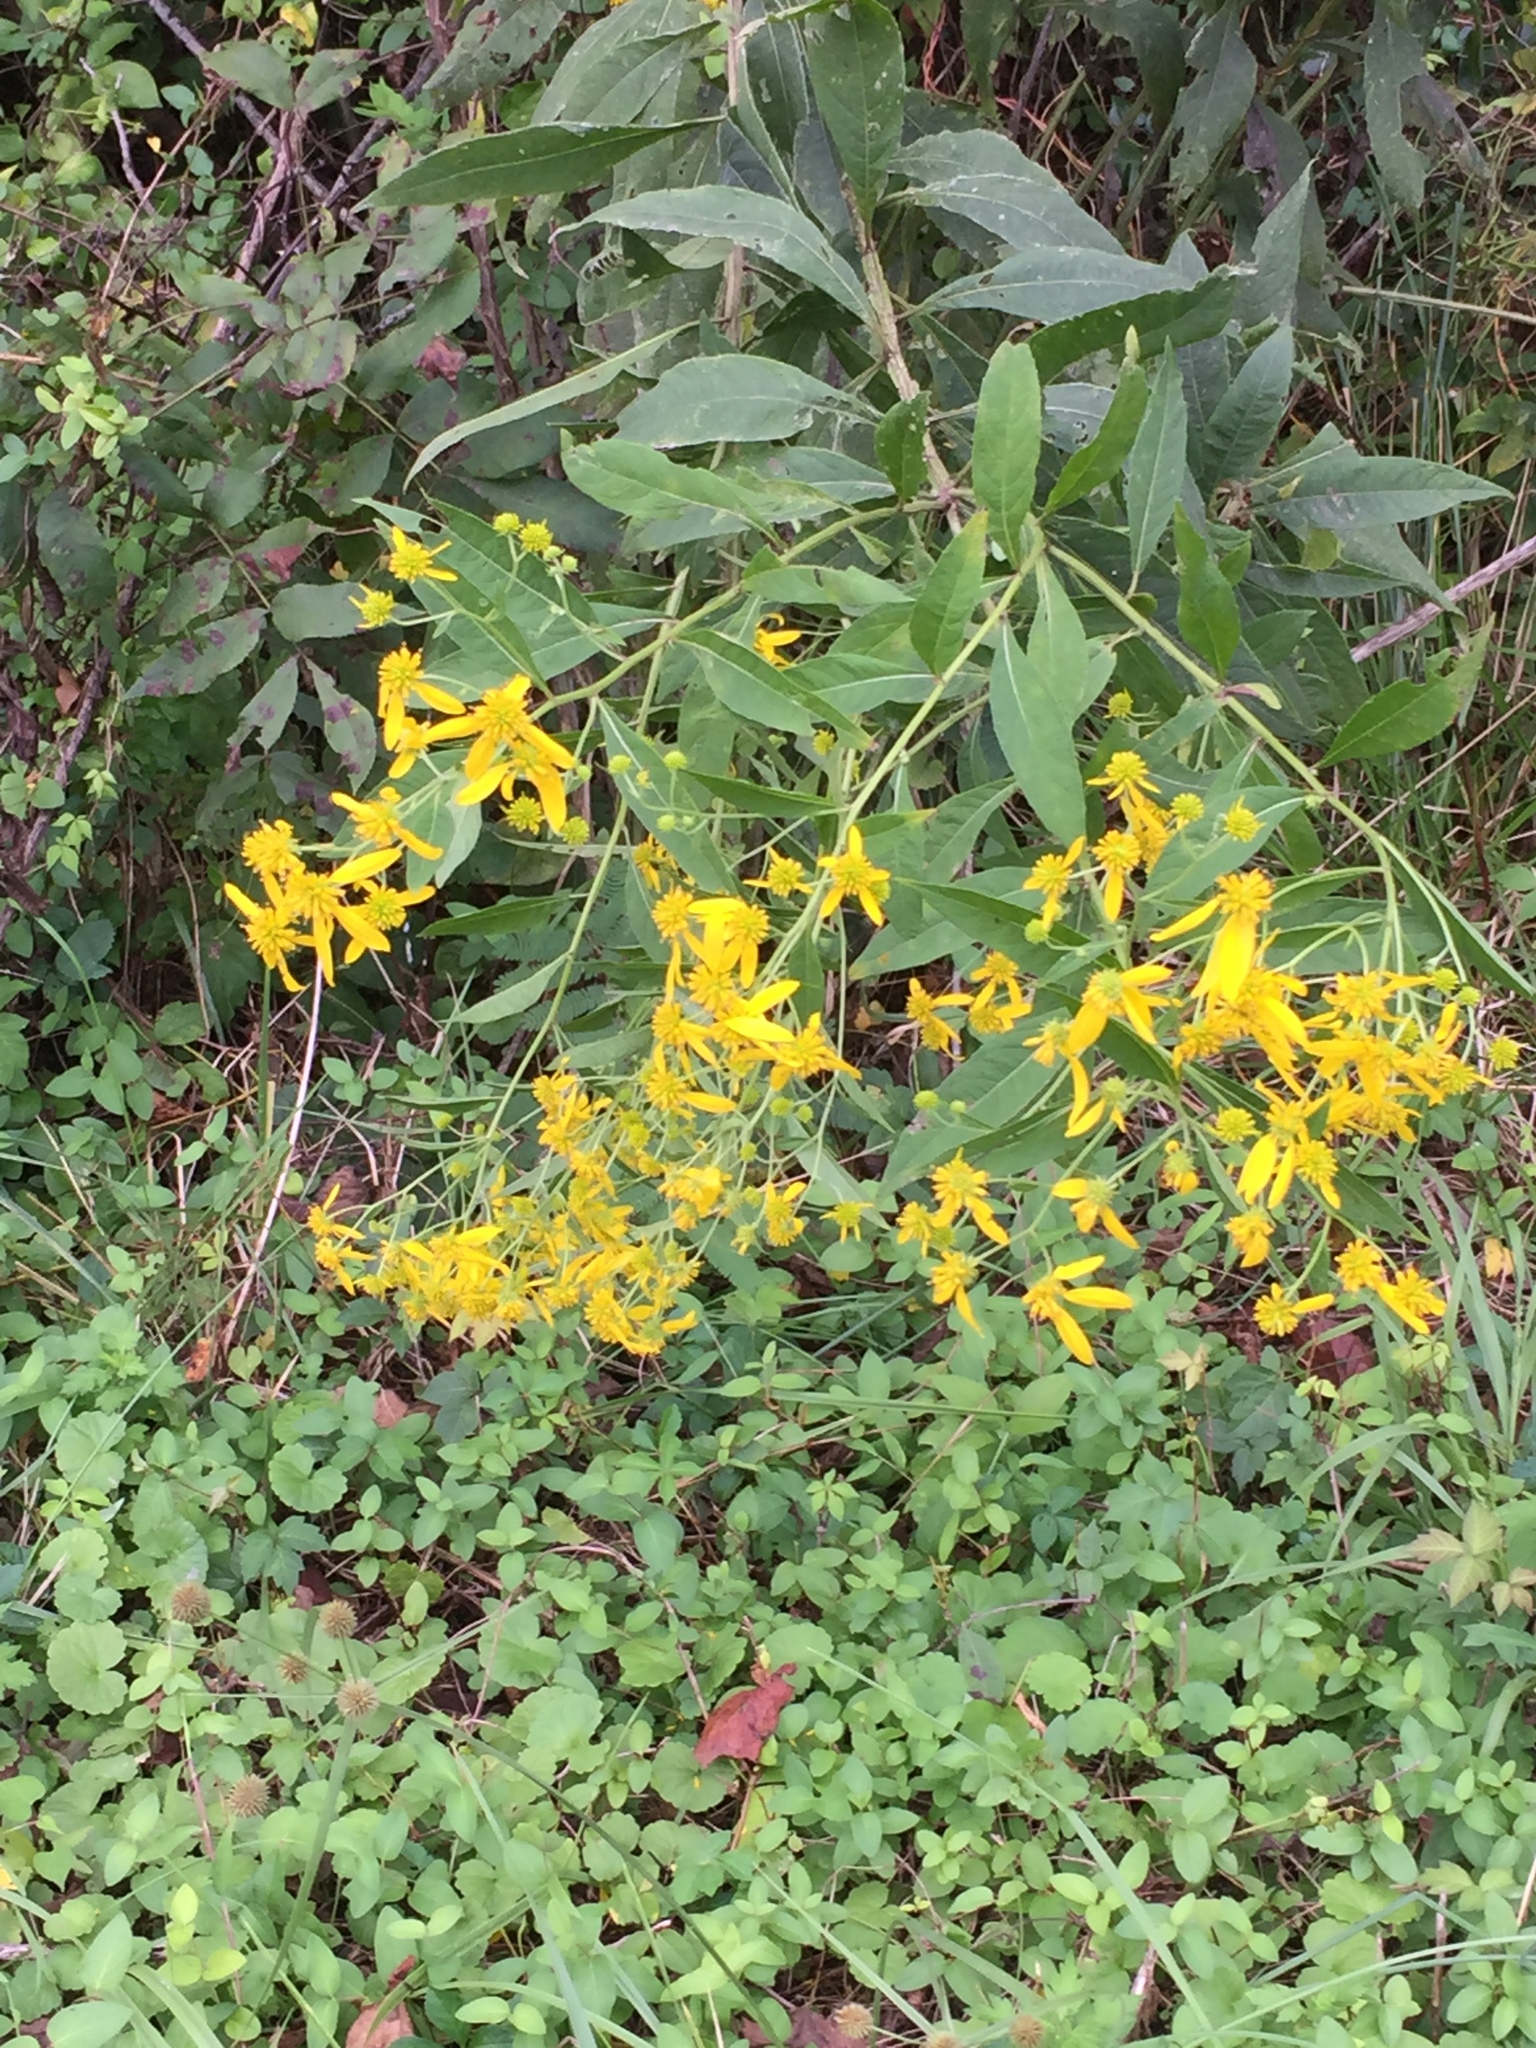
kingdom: Plantae
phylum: Tracheophyta
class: Magnoliopsida
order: Asterales
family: Asteraceae
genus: Verbesina
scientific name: Verbesina alternifolia
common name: Wingstem
